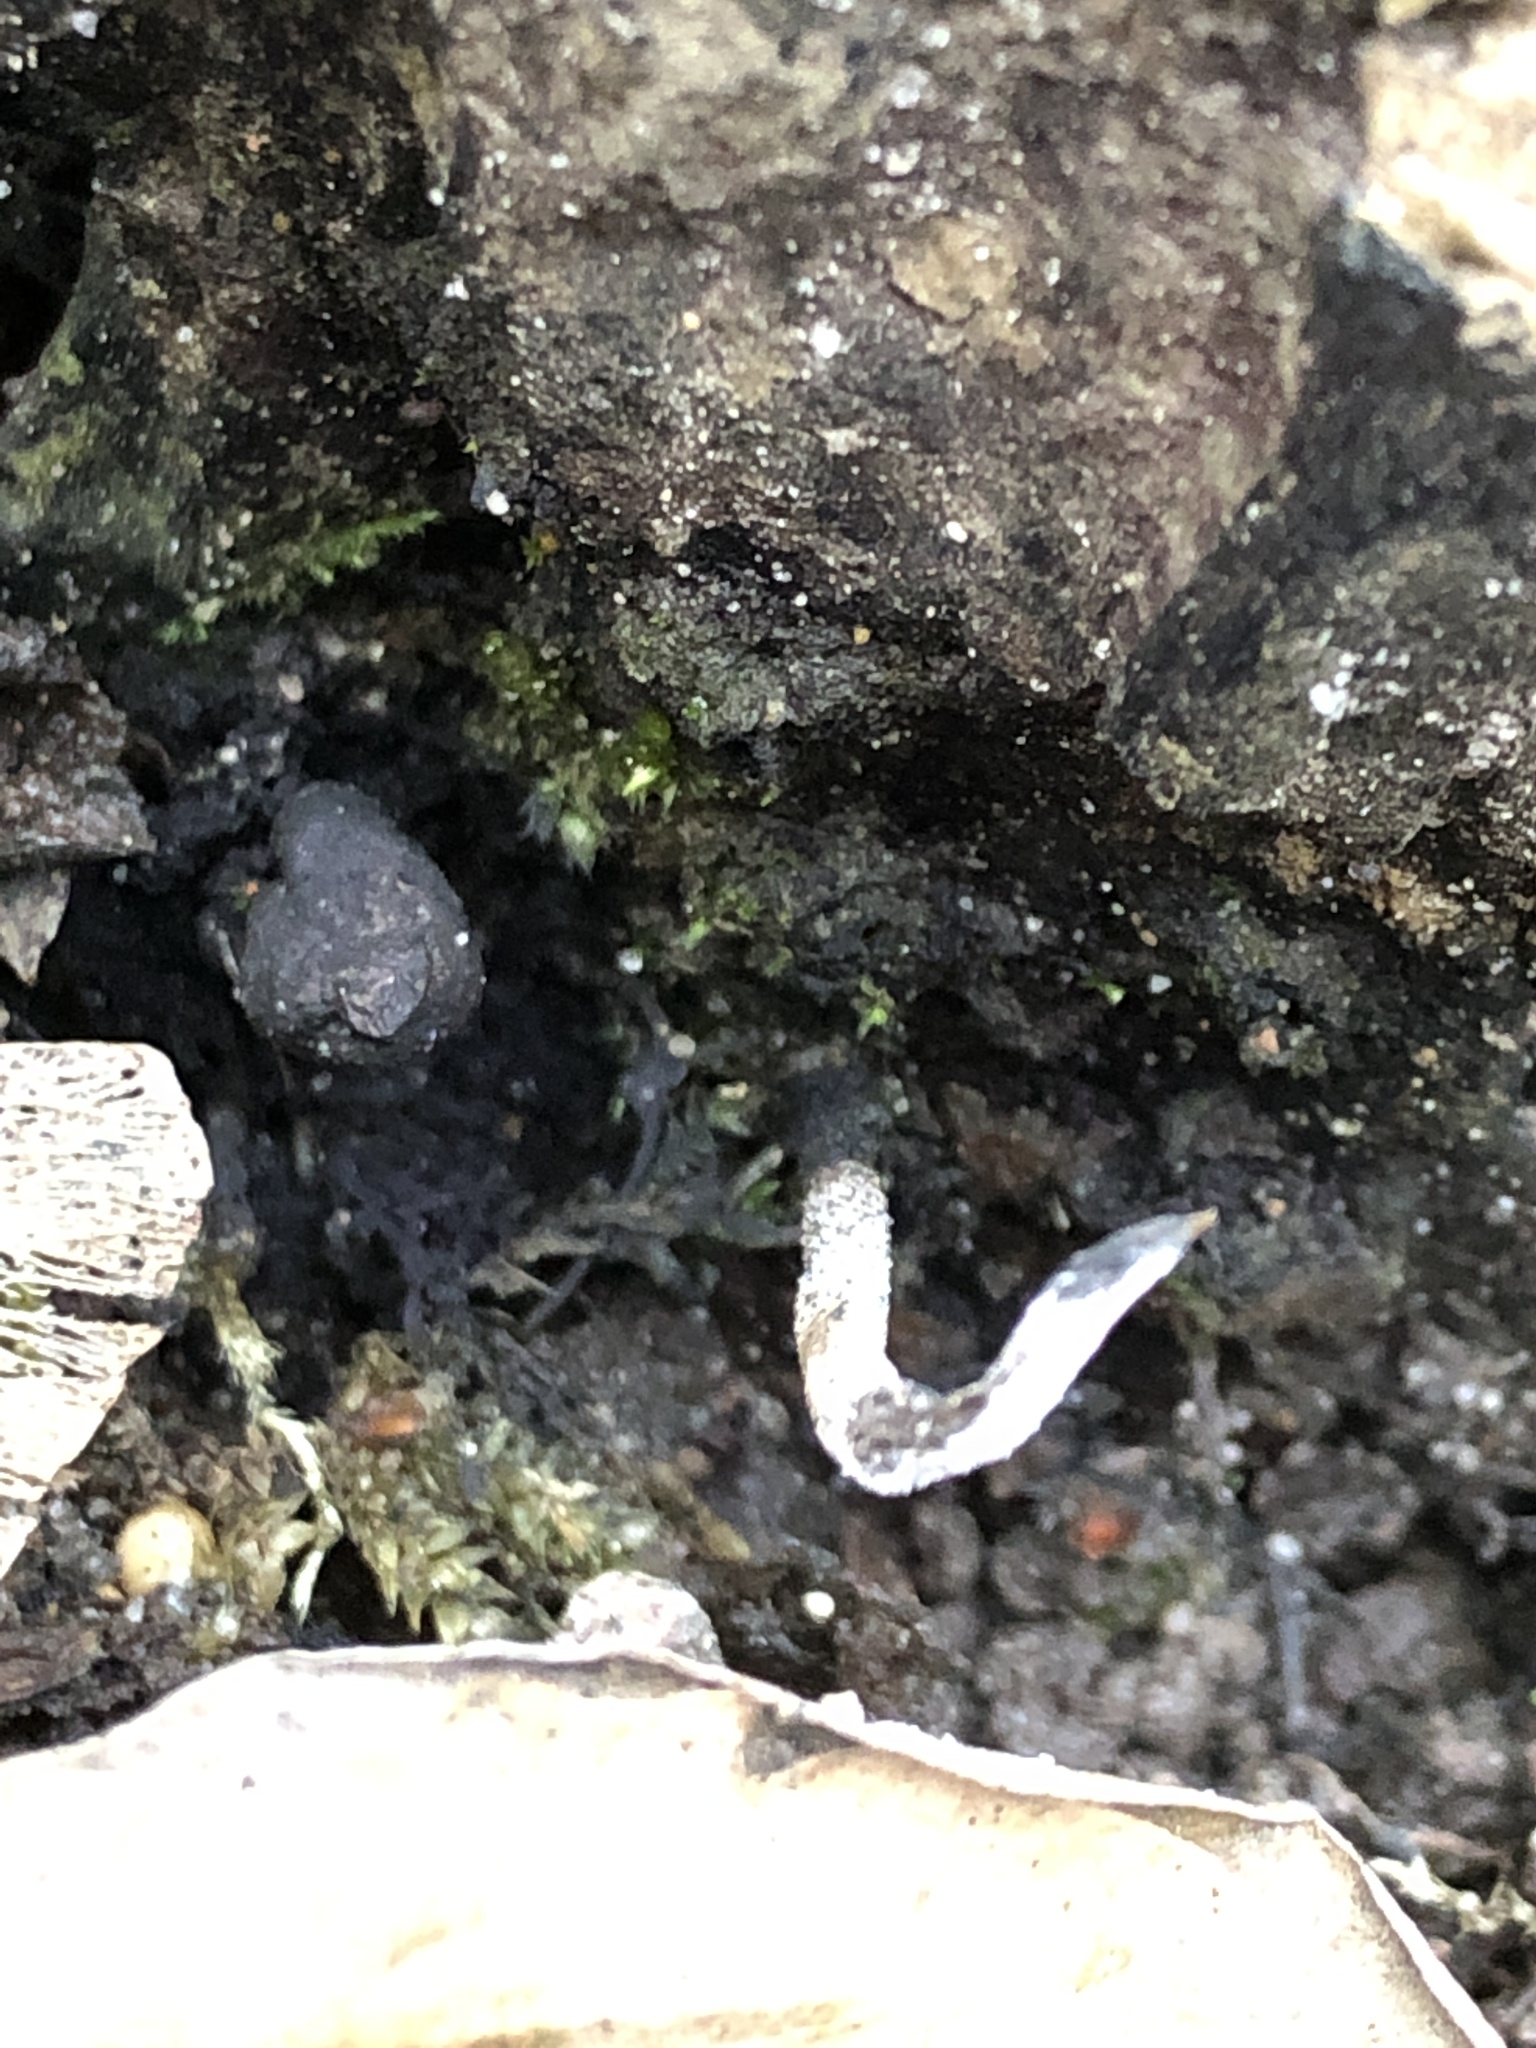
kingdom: Fungi
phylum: Ascomycota
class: Sordariomycetes
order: Xylariales
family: Xylariaceae
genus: Xylaria
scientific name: Xylaria hypoxylon
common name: Candle-snuff fungus
